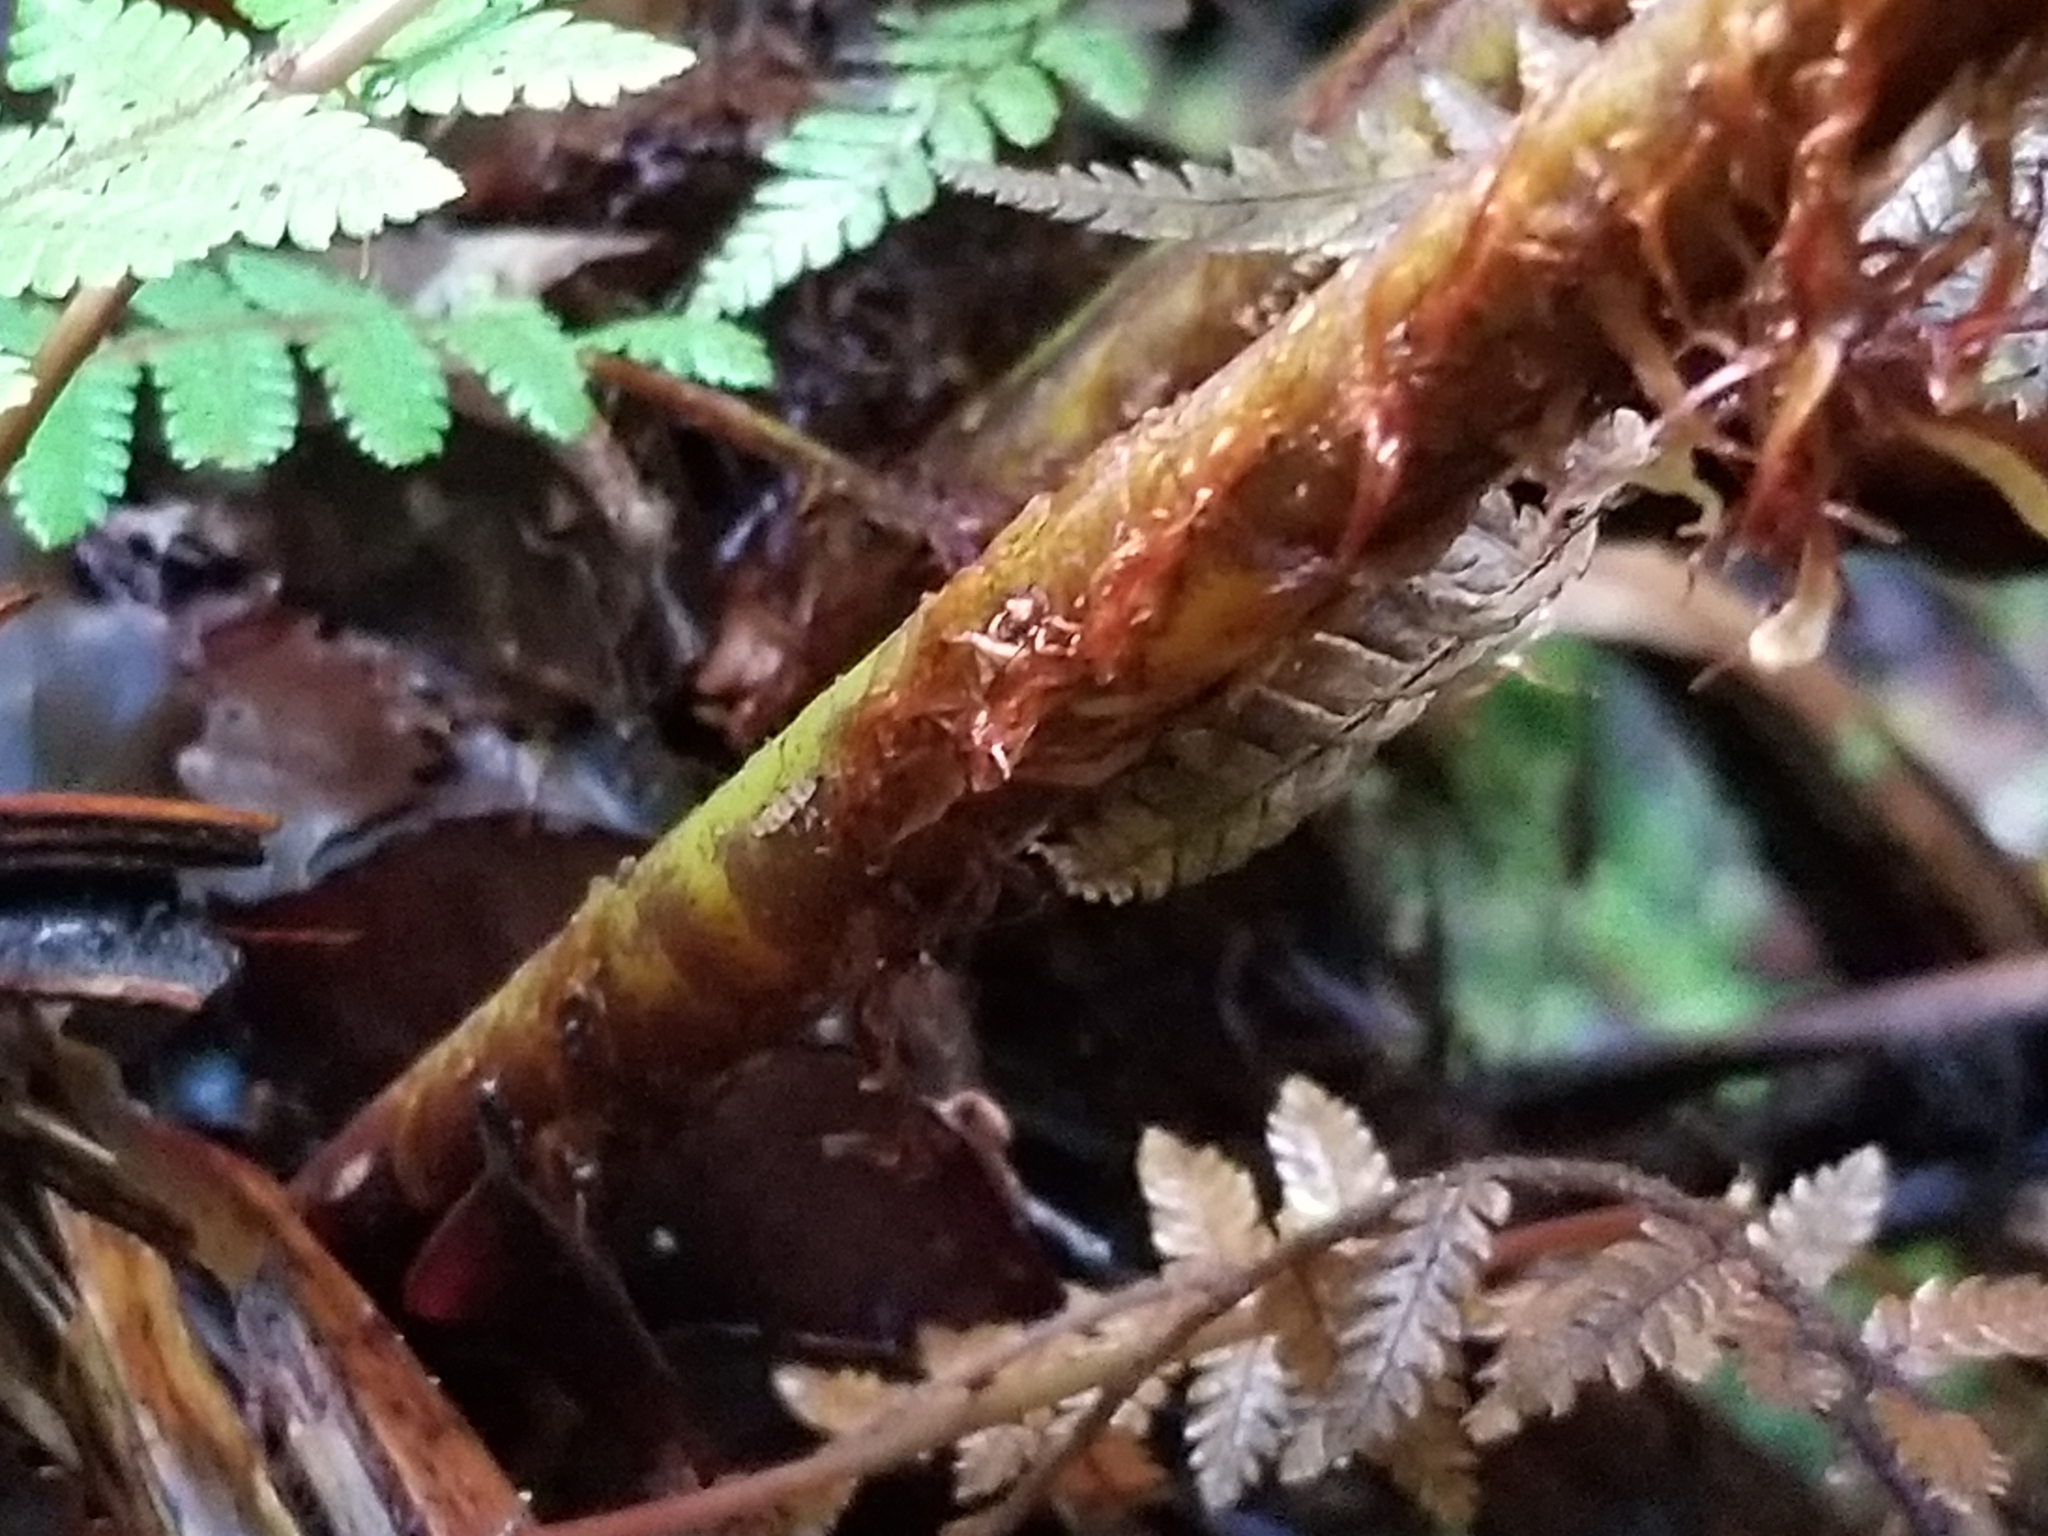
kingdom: Plantae
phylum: Tracheophyta
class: Polypodiopsida
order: Cyatheales
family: Cyatheaceae
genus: Alsophila
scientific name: Alsophila smithii
